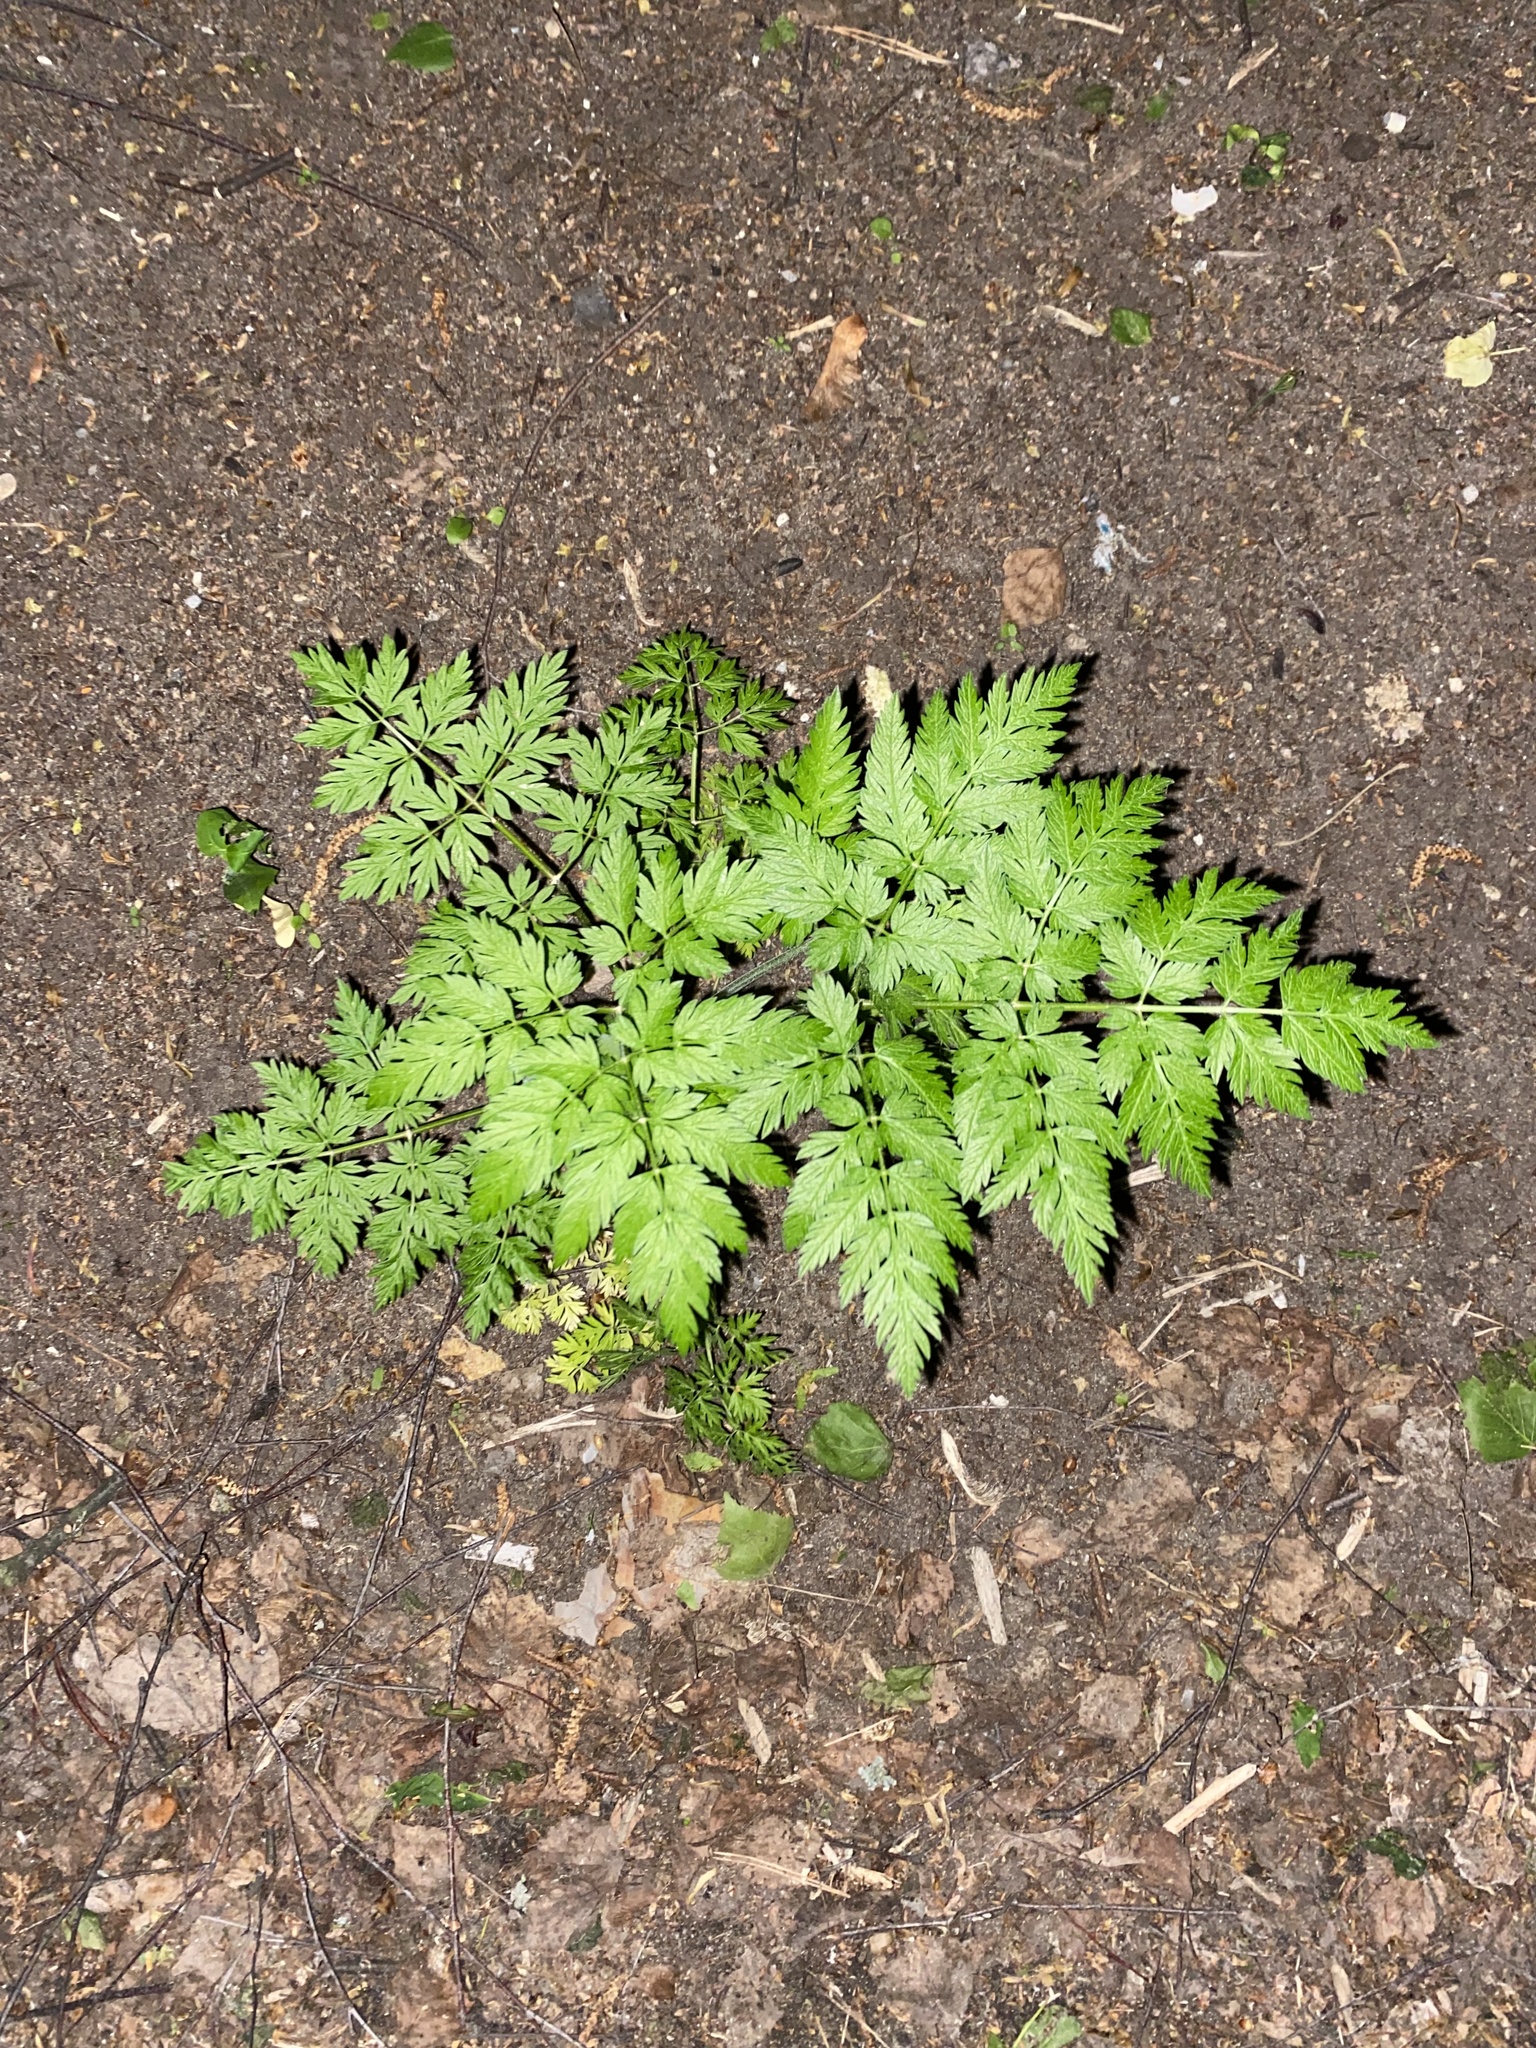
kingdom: Plantae
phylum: Tracheophyta
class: Magnoliopsida
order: Apiales
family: Apiaceae
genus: Anthriscus
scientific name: Anthriscus sylvestris
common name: Cow parsley
